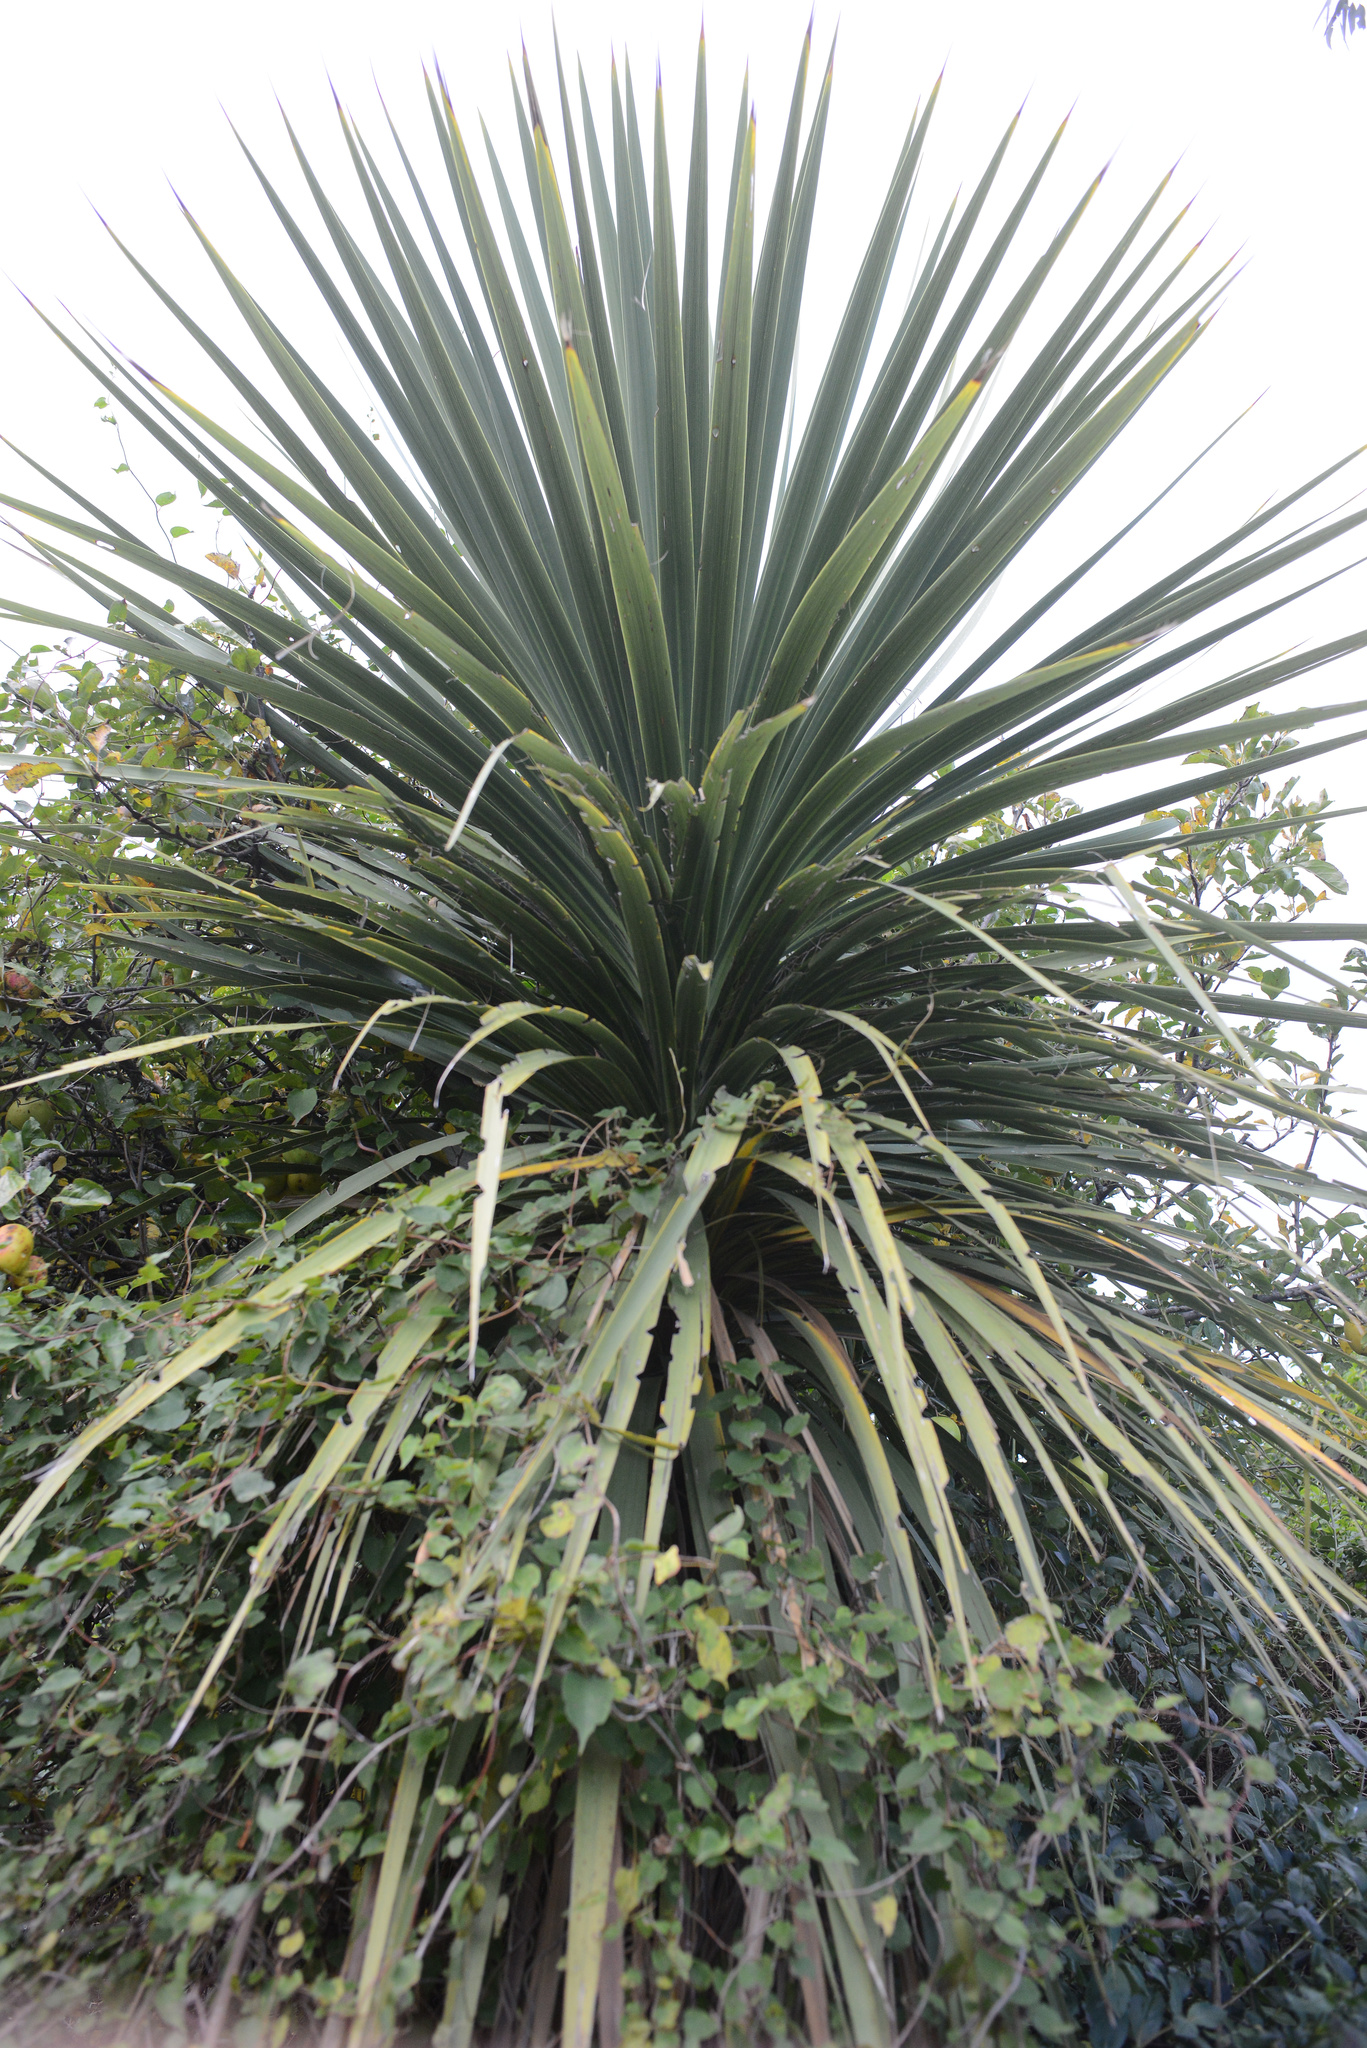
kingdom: Plantae
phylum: Tracheophyta
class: Liliopsida
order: Asparagales
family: Asparagaceae
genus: Cordyline
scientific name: Cordyline australis
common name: Cabbage-palm
